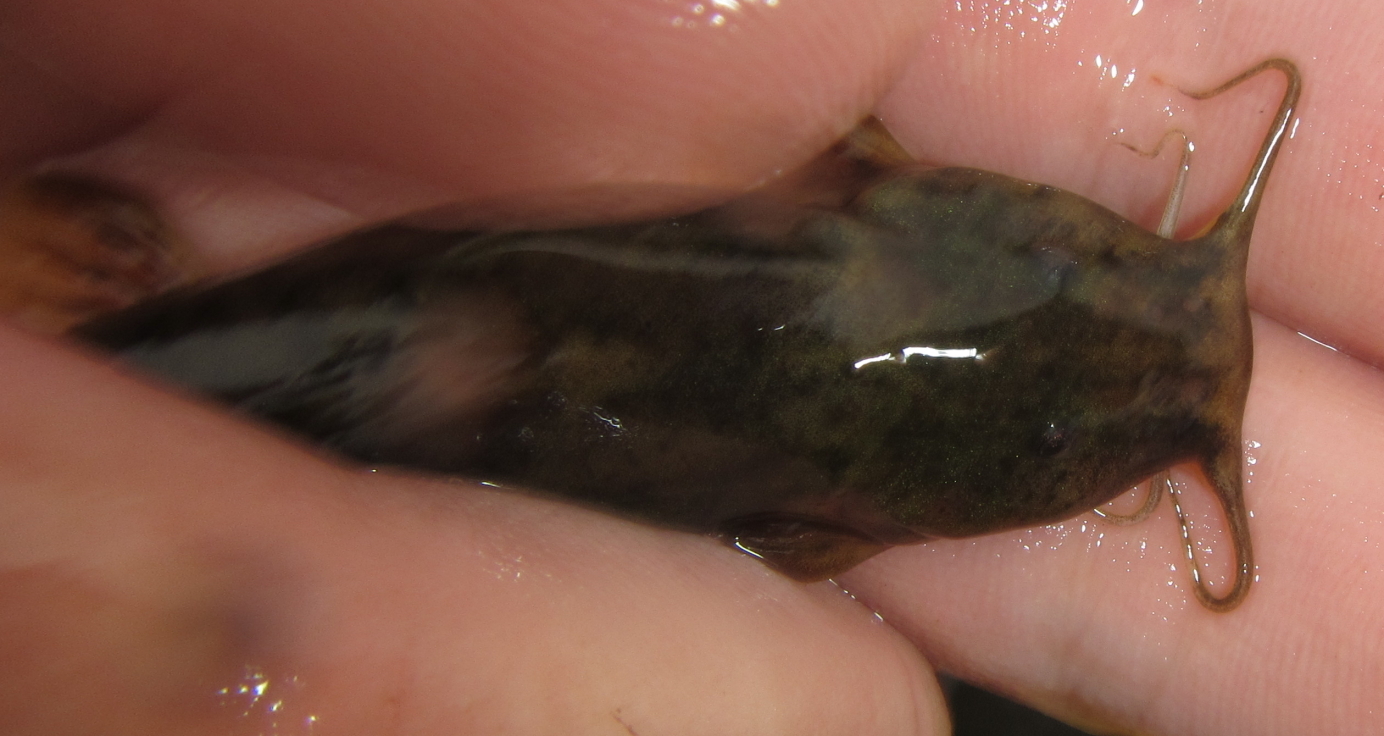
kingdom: Animalia
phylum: Chordata
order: Siluriformes
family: Amphiliidae
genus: Amphilius
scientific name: Amphilius uranoscopus
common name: Stargazer mountain catfish
